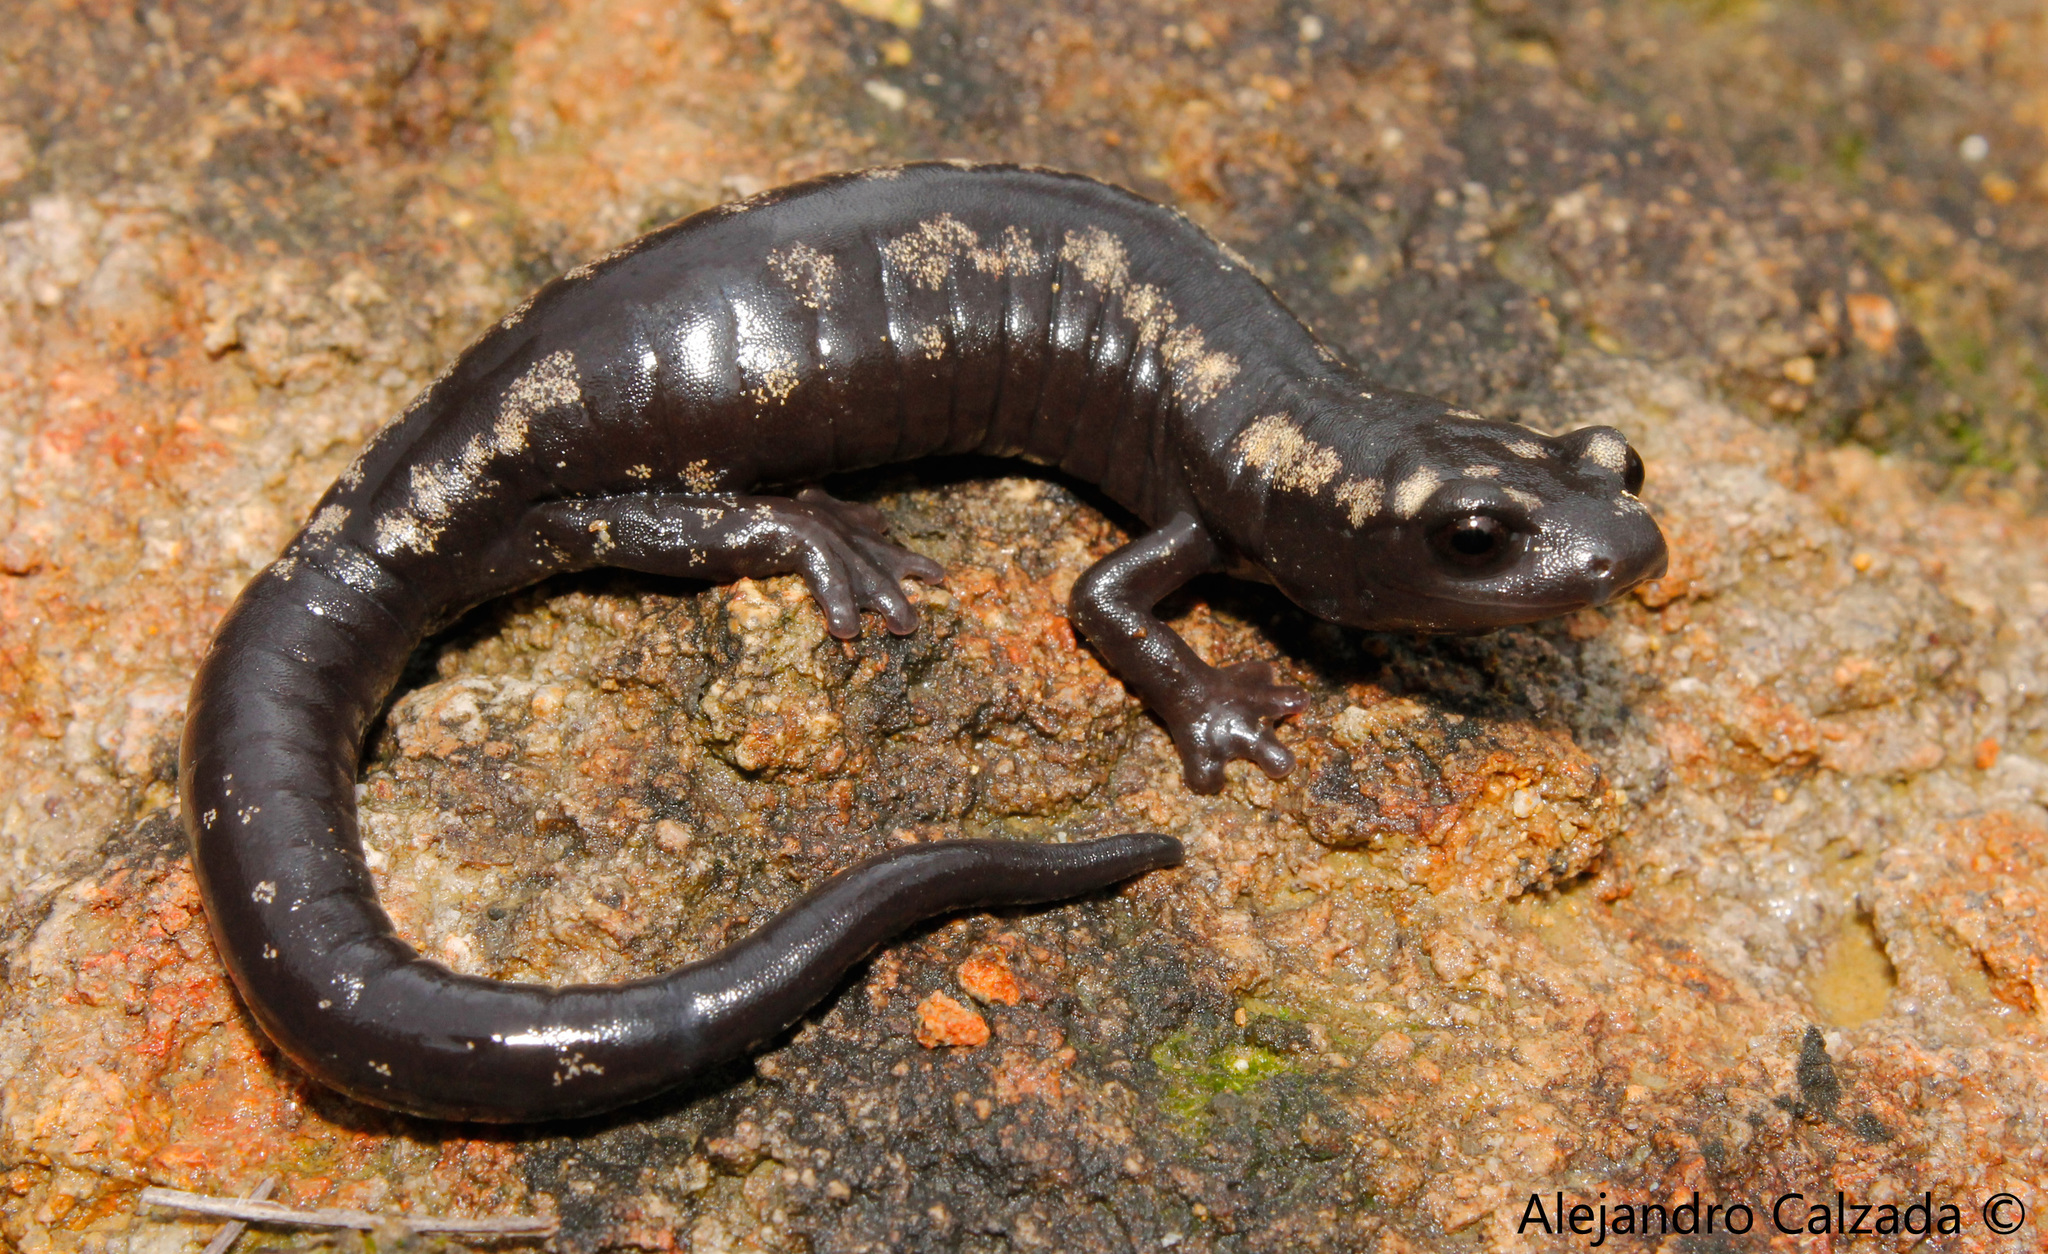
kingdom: Animalia
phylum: Chordata
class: Amphibia
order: Caudata
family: Plethodontidae
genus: Bolitoglossa
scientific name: Bolitoglossa zapoteca
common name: Zapotec salamander
